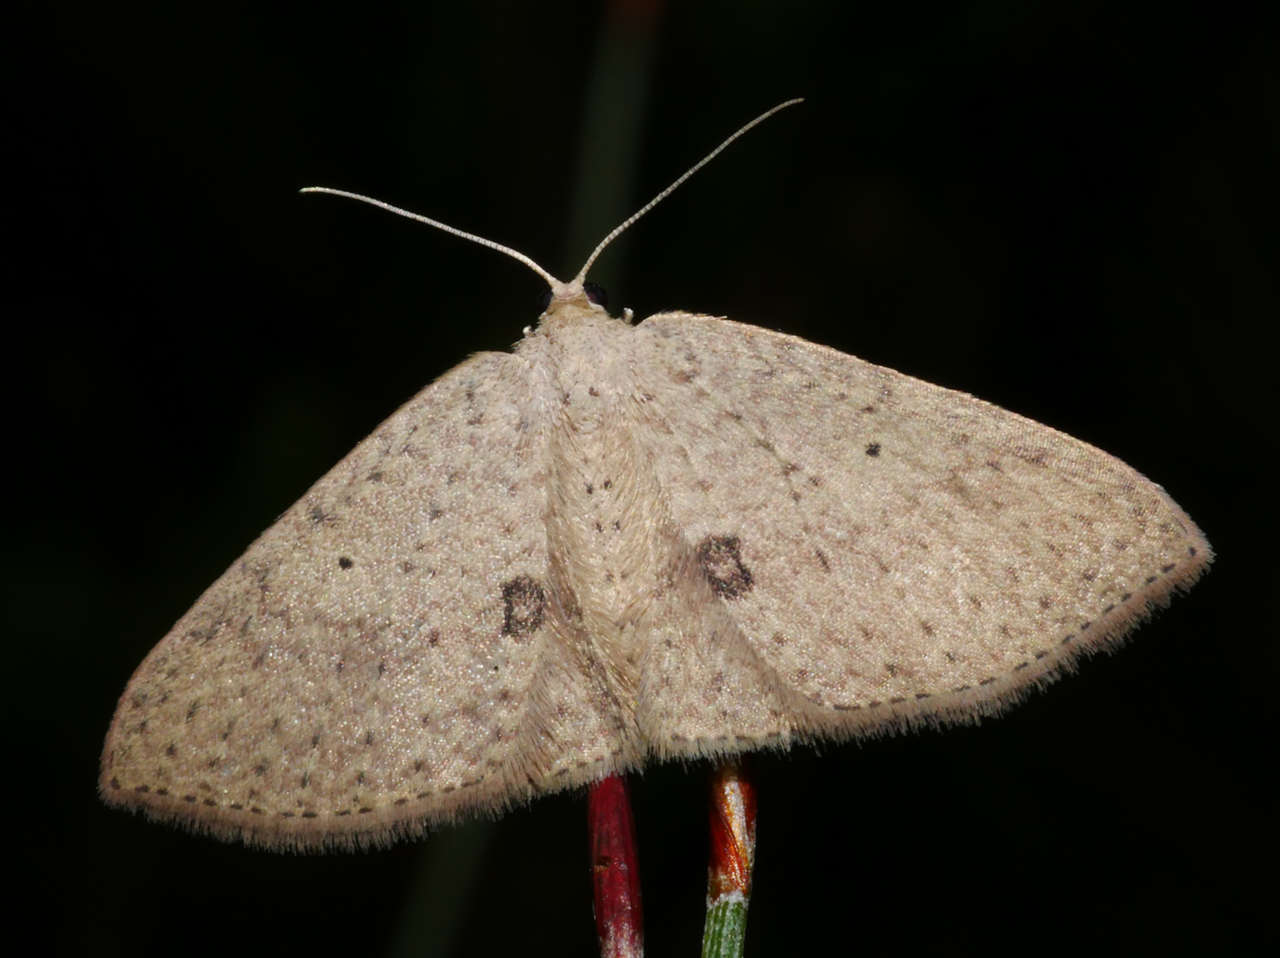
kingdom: Animalia
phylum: Arthropoda
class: Insecta
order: Lepidoptera
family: Geometridae
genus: Poecilasthena
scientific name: Poecilasthena anthodes
